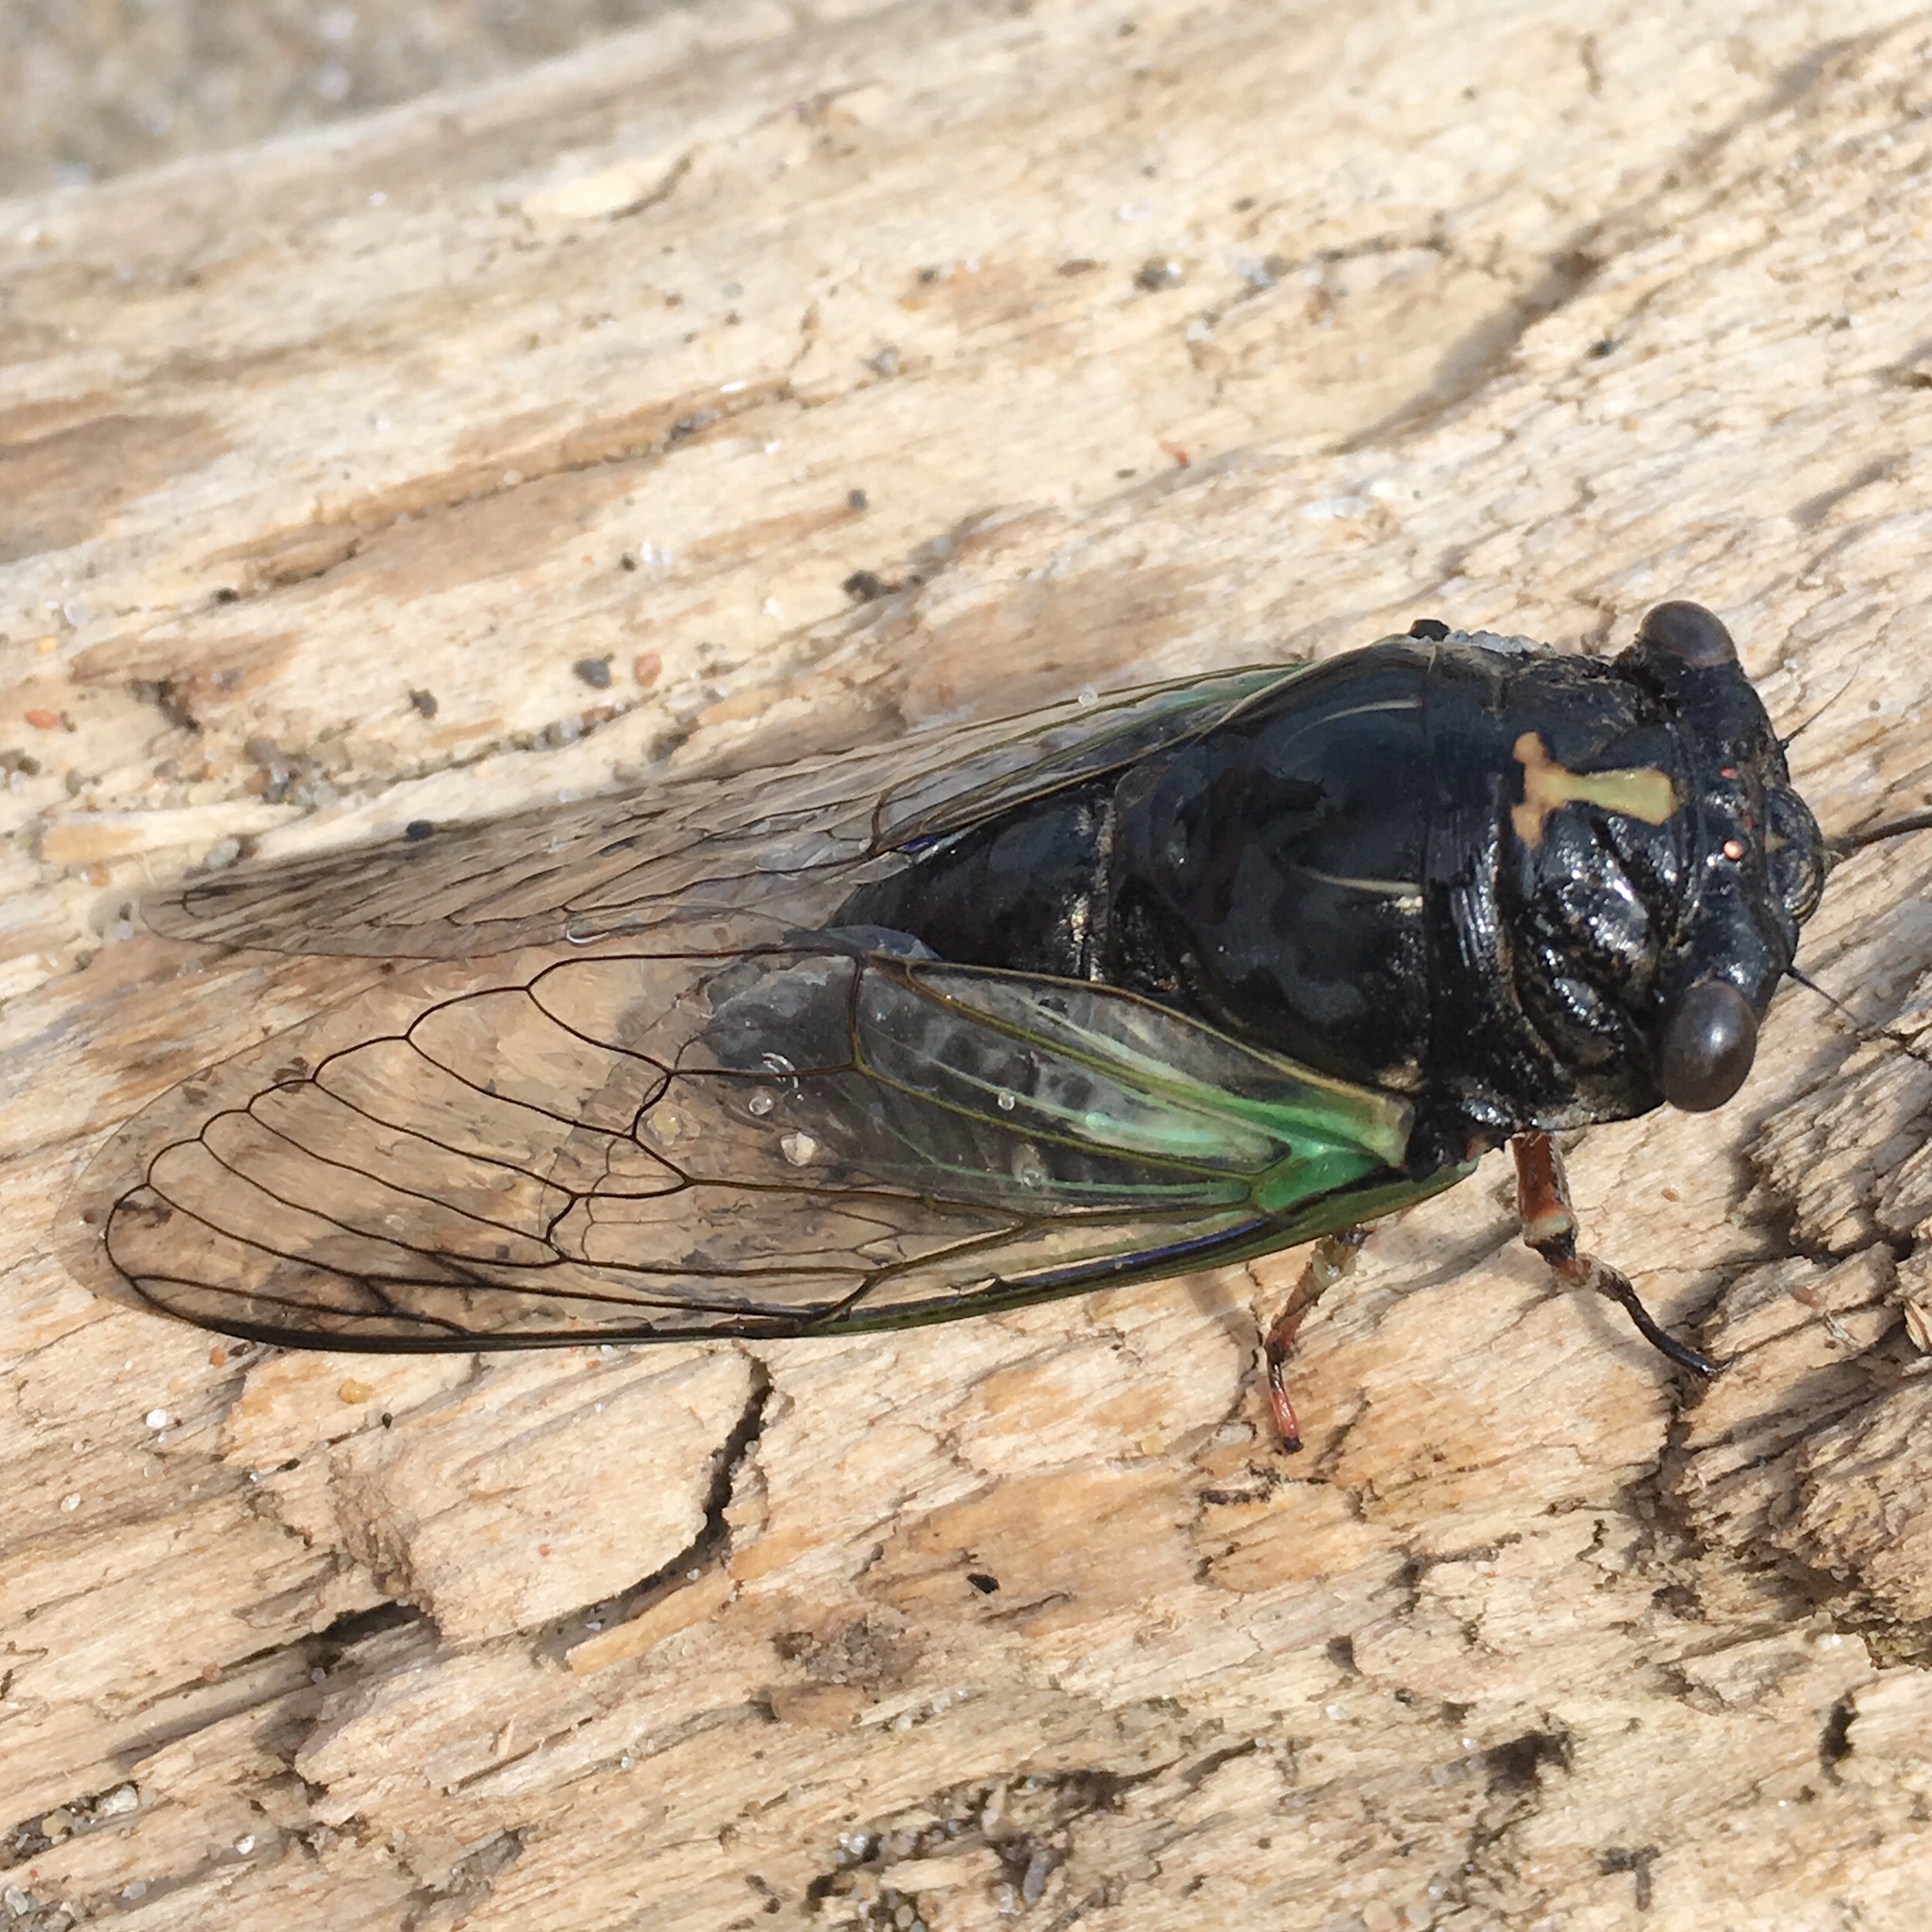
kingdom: Animalia
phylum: Arthropoda
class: Insecta
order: Hemiptera
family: Cicadidae
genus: Neotibicen
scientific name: Neotibicen lyricen
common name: Lyric cicada
